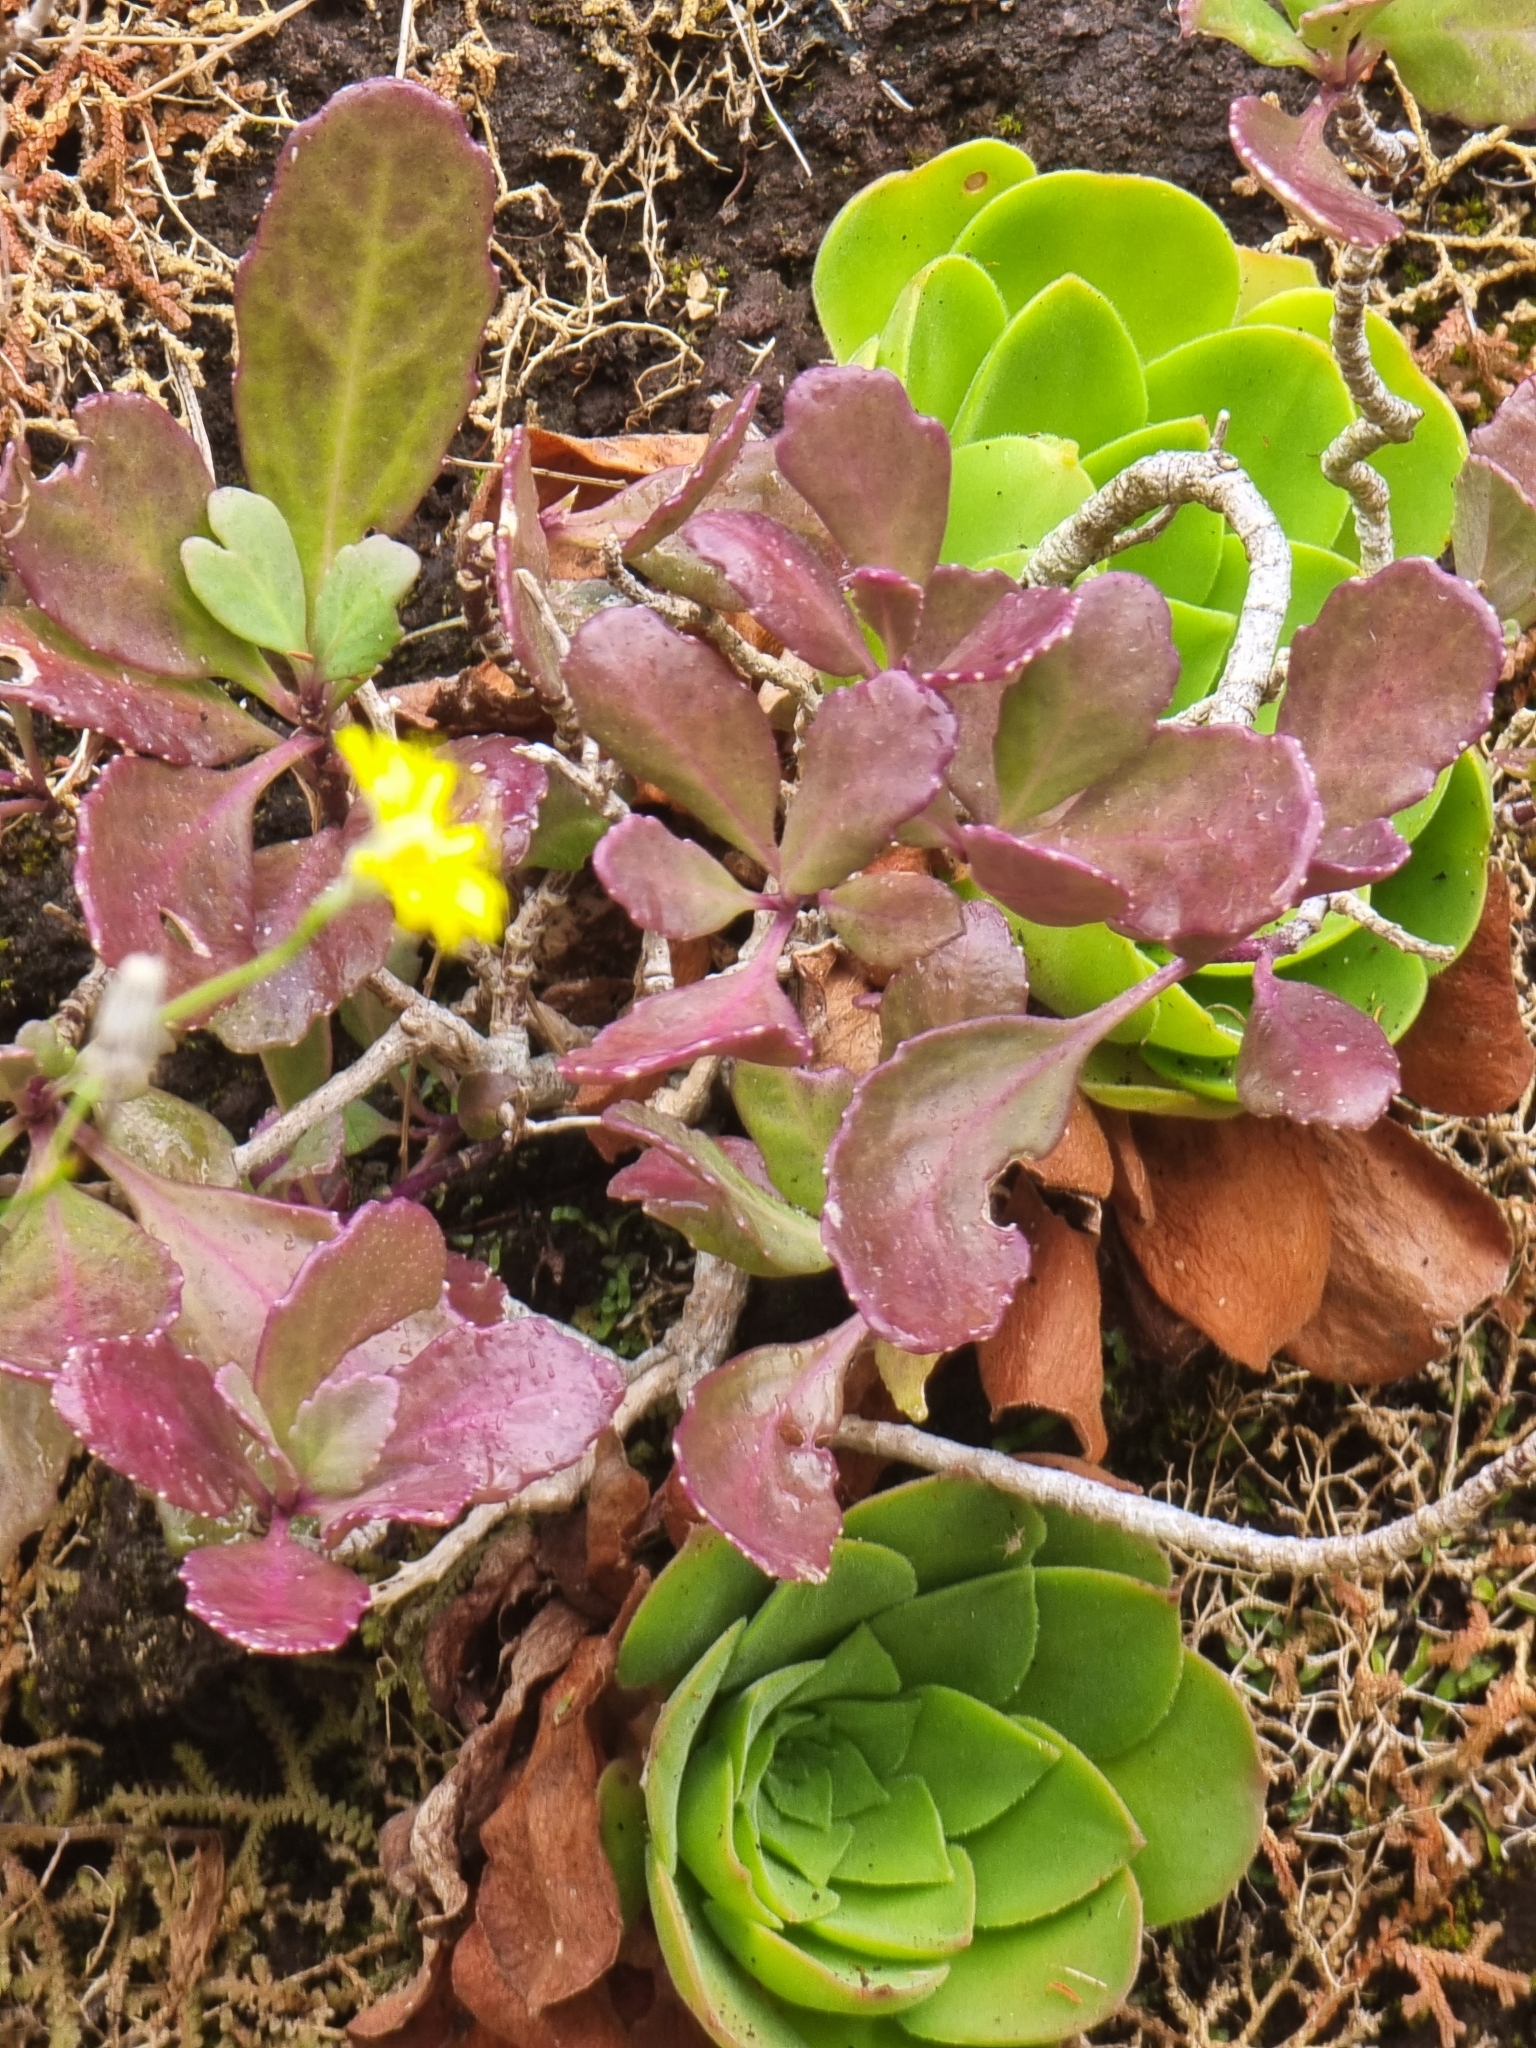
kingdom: Plantae
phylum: Tracheophyta
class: Magnoliopsida
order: Brassicales
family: Brassicaceae
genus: Sinapidendron
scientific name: Sinapidendron frutescens
